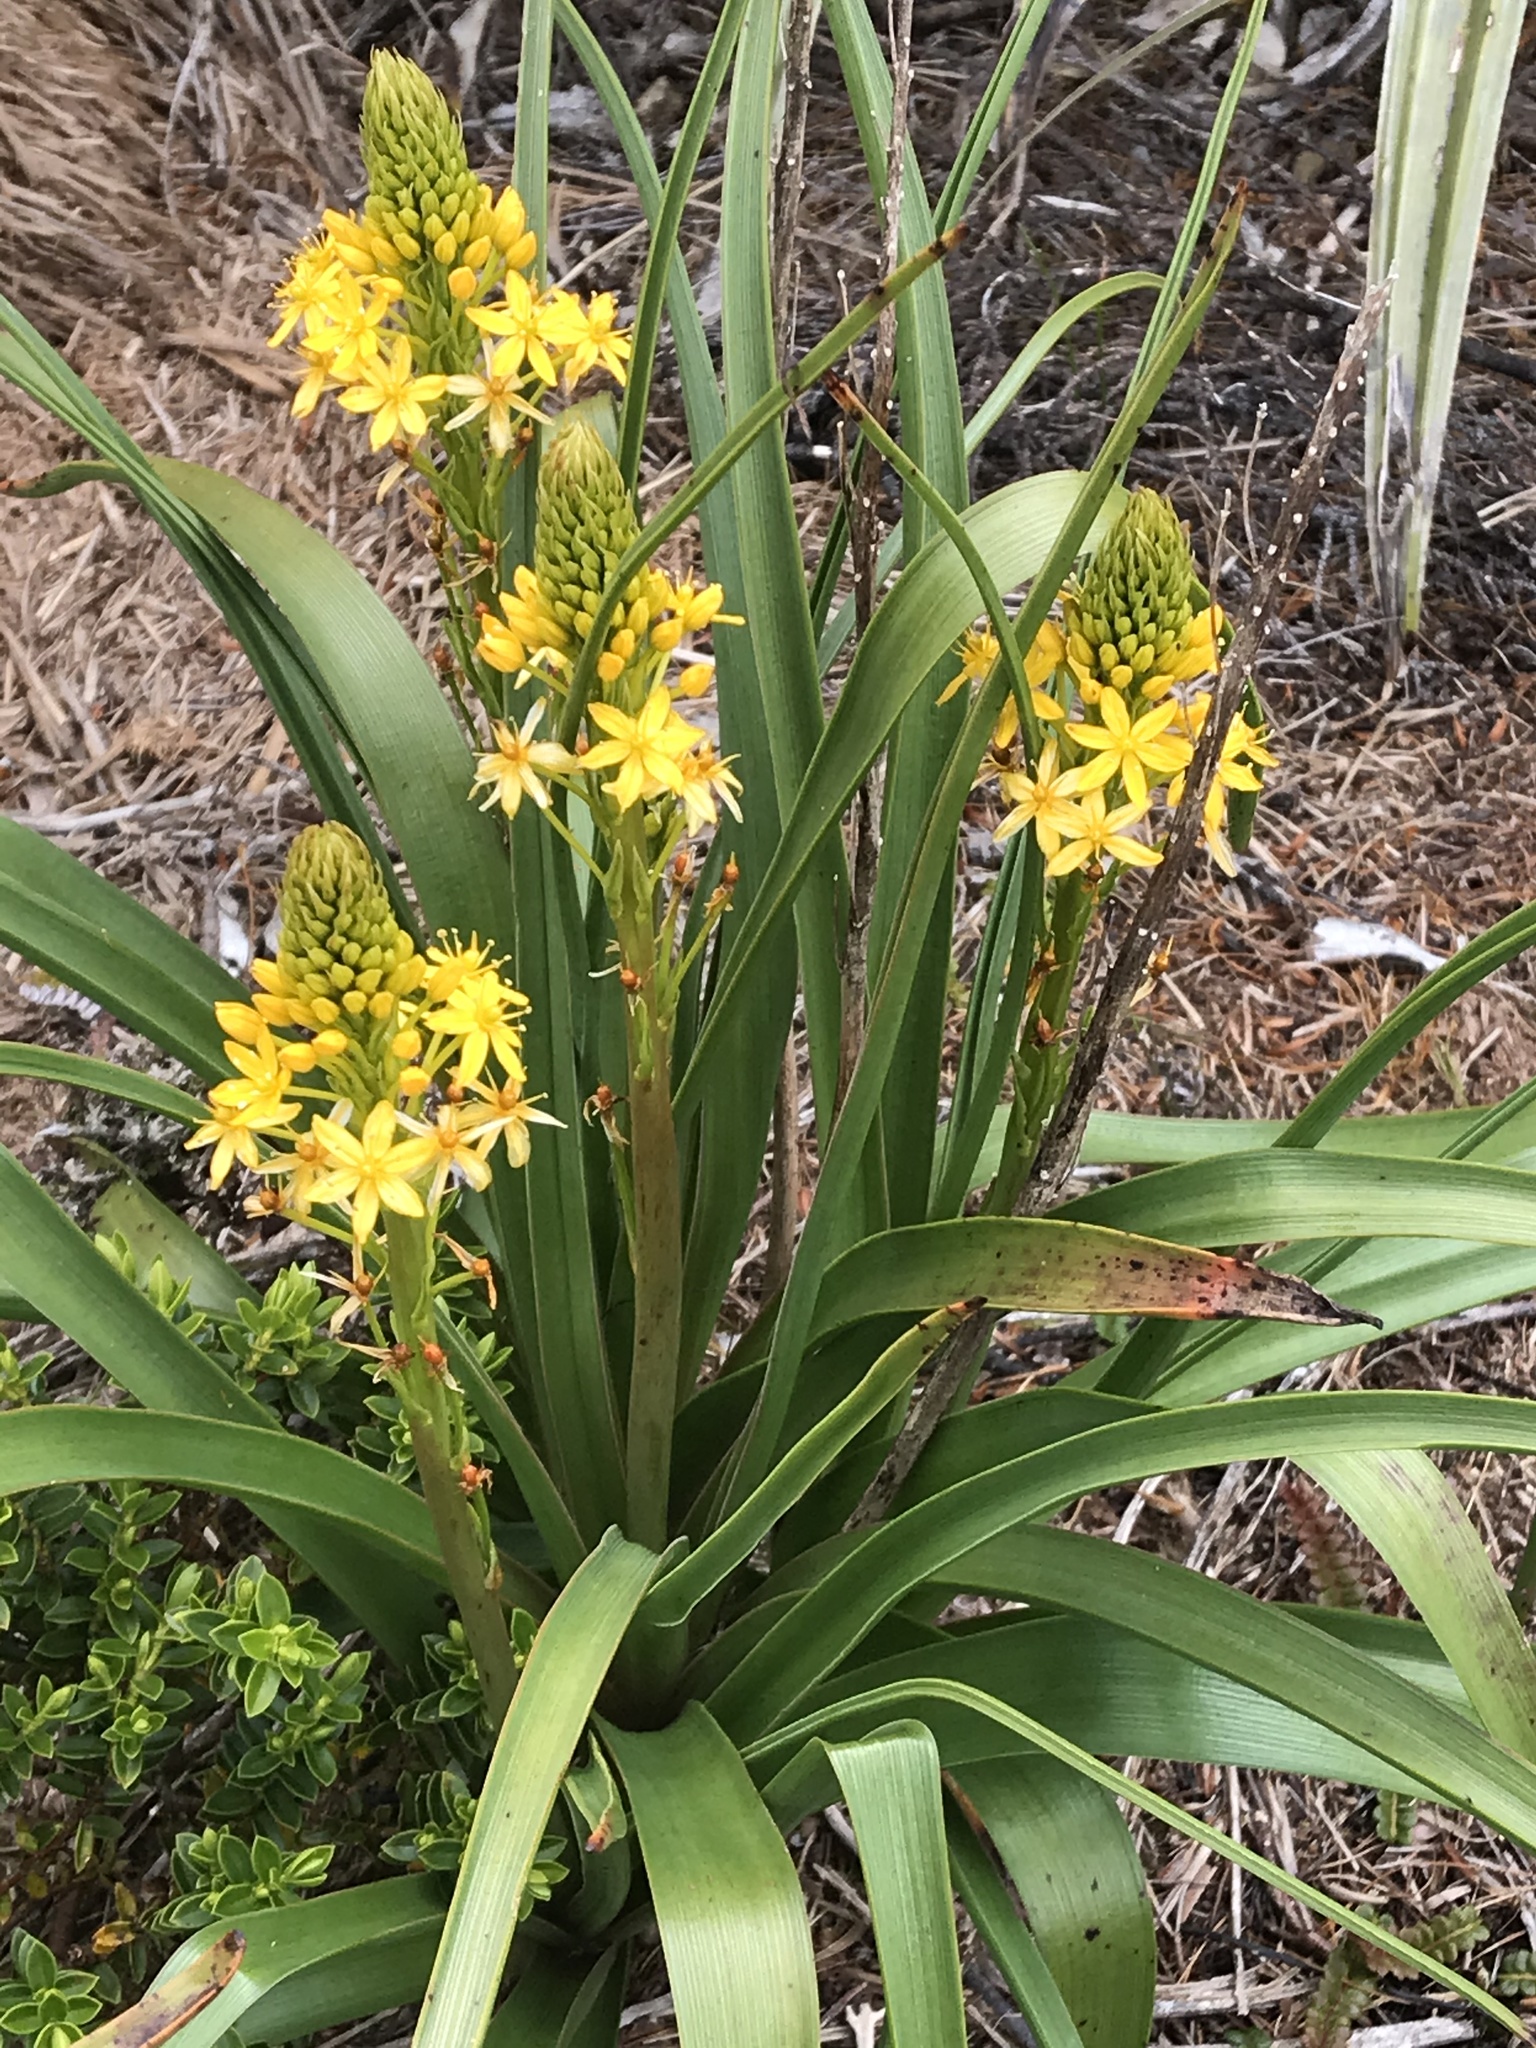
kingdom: Plantae
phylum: Tracheophyta
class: Liliopsida
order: Asparagales
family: Asphodelaceae
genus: Bulbinella
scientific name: Bulbinella hookeri
